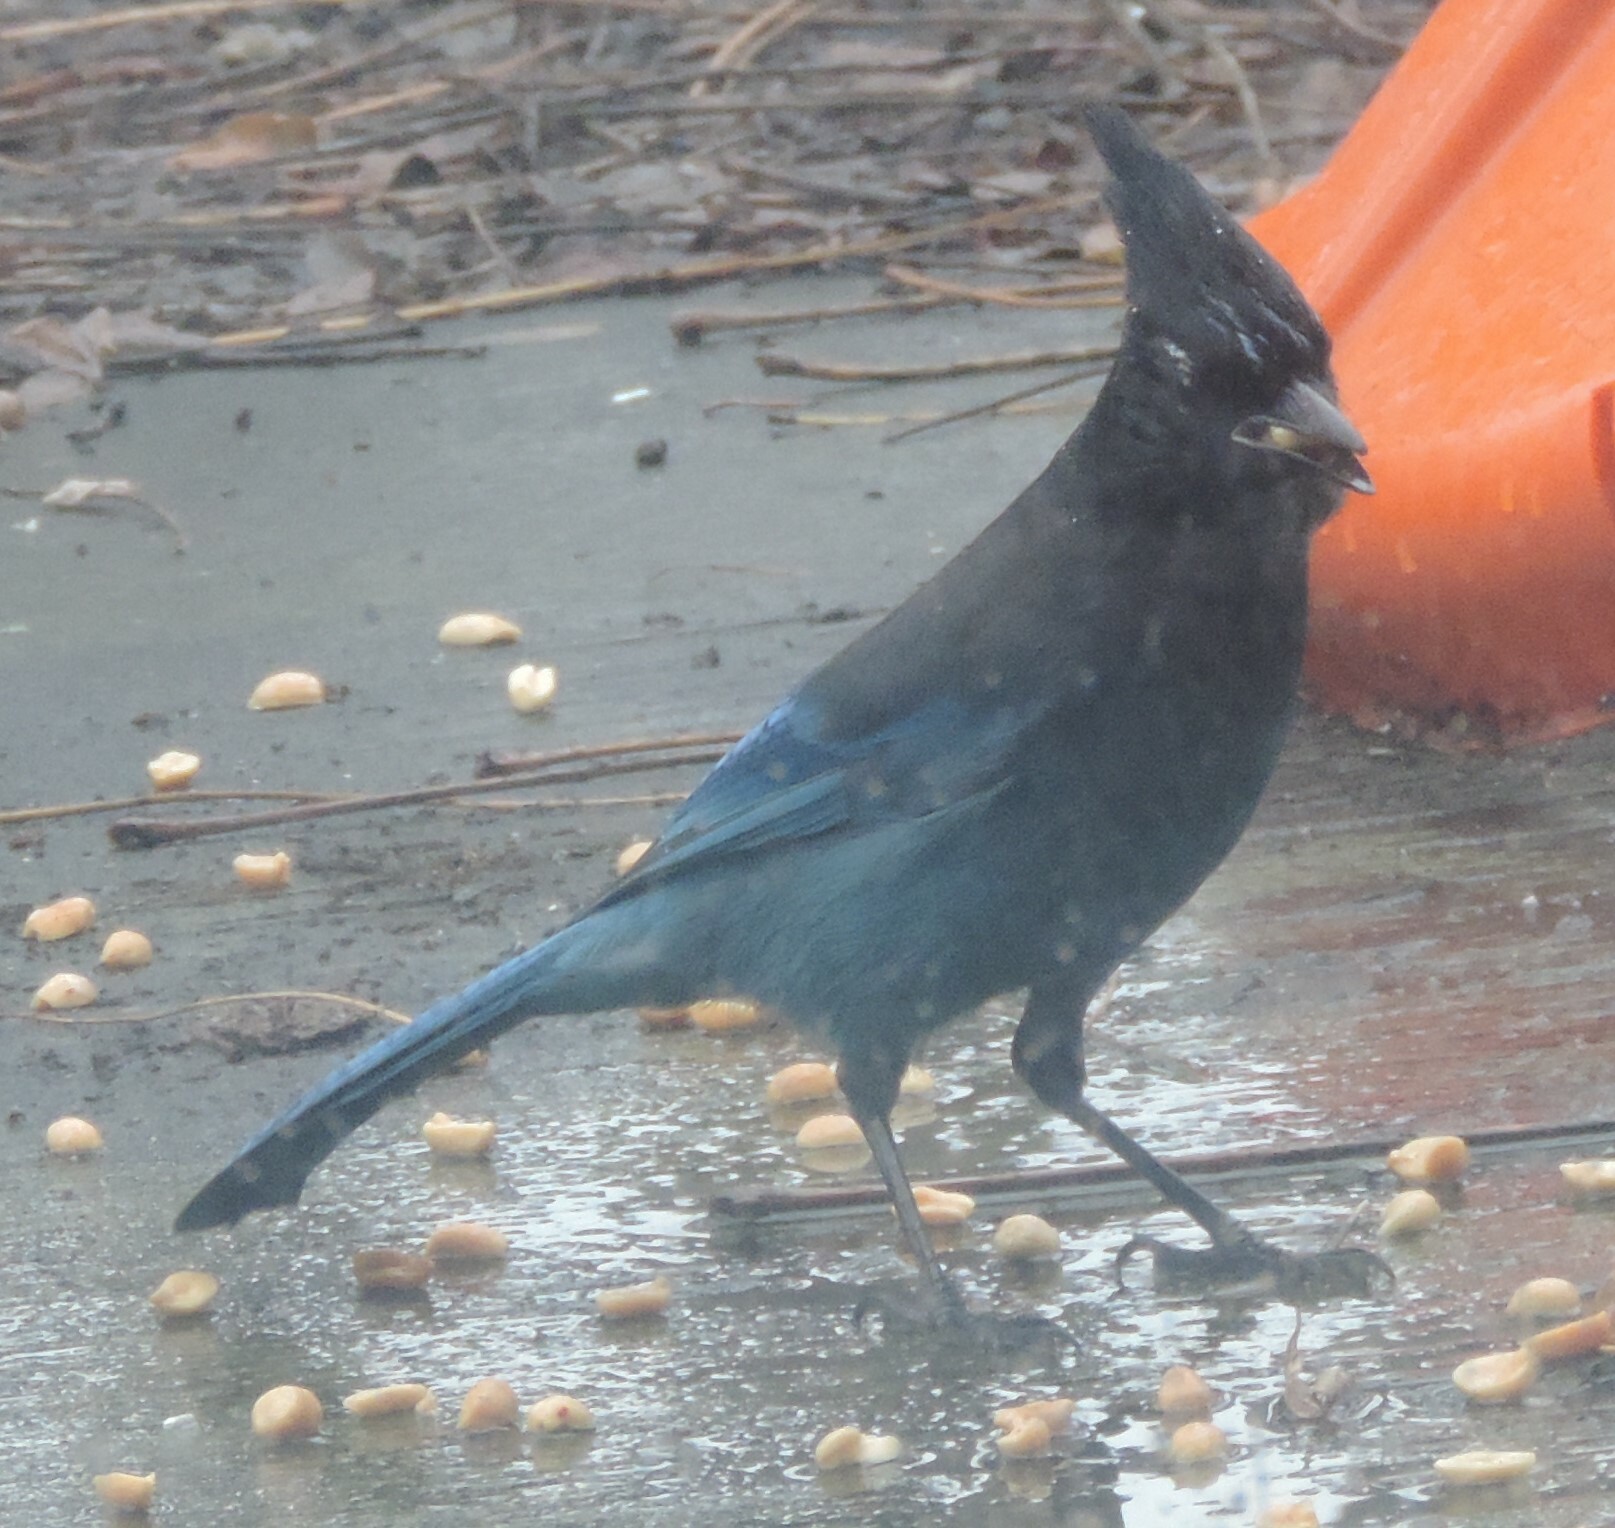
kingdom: Animalia
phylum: Chordata
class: Aves
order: Passeriformes
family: Corvidae
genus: Cyanocitta
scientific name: Cyanocitta stelleri
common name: Steller's jay
